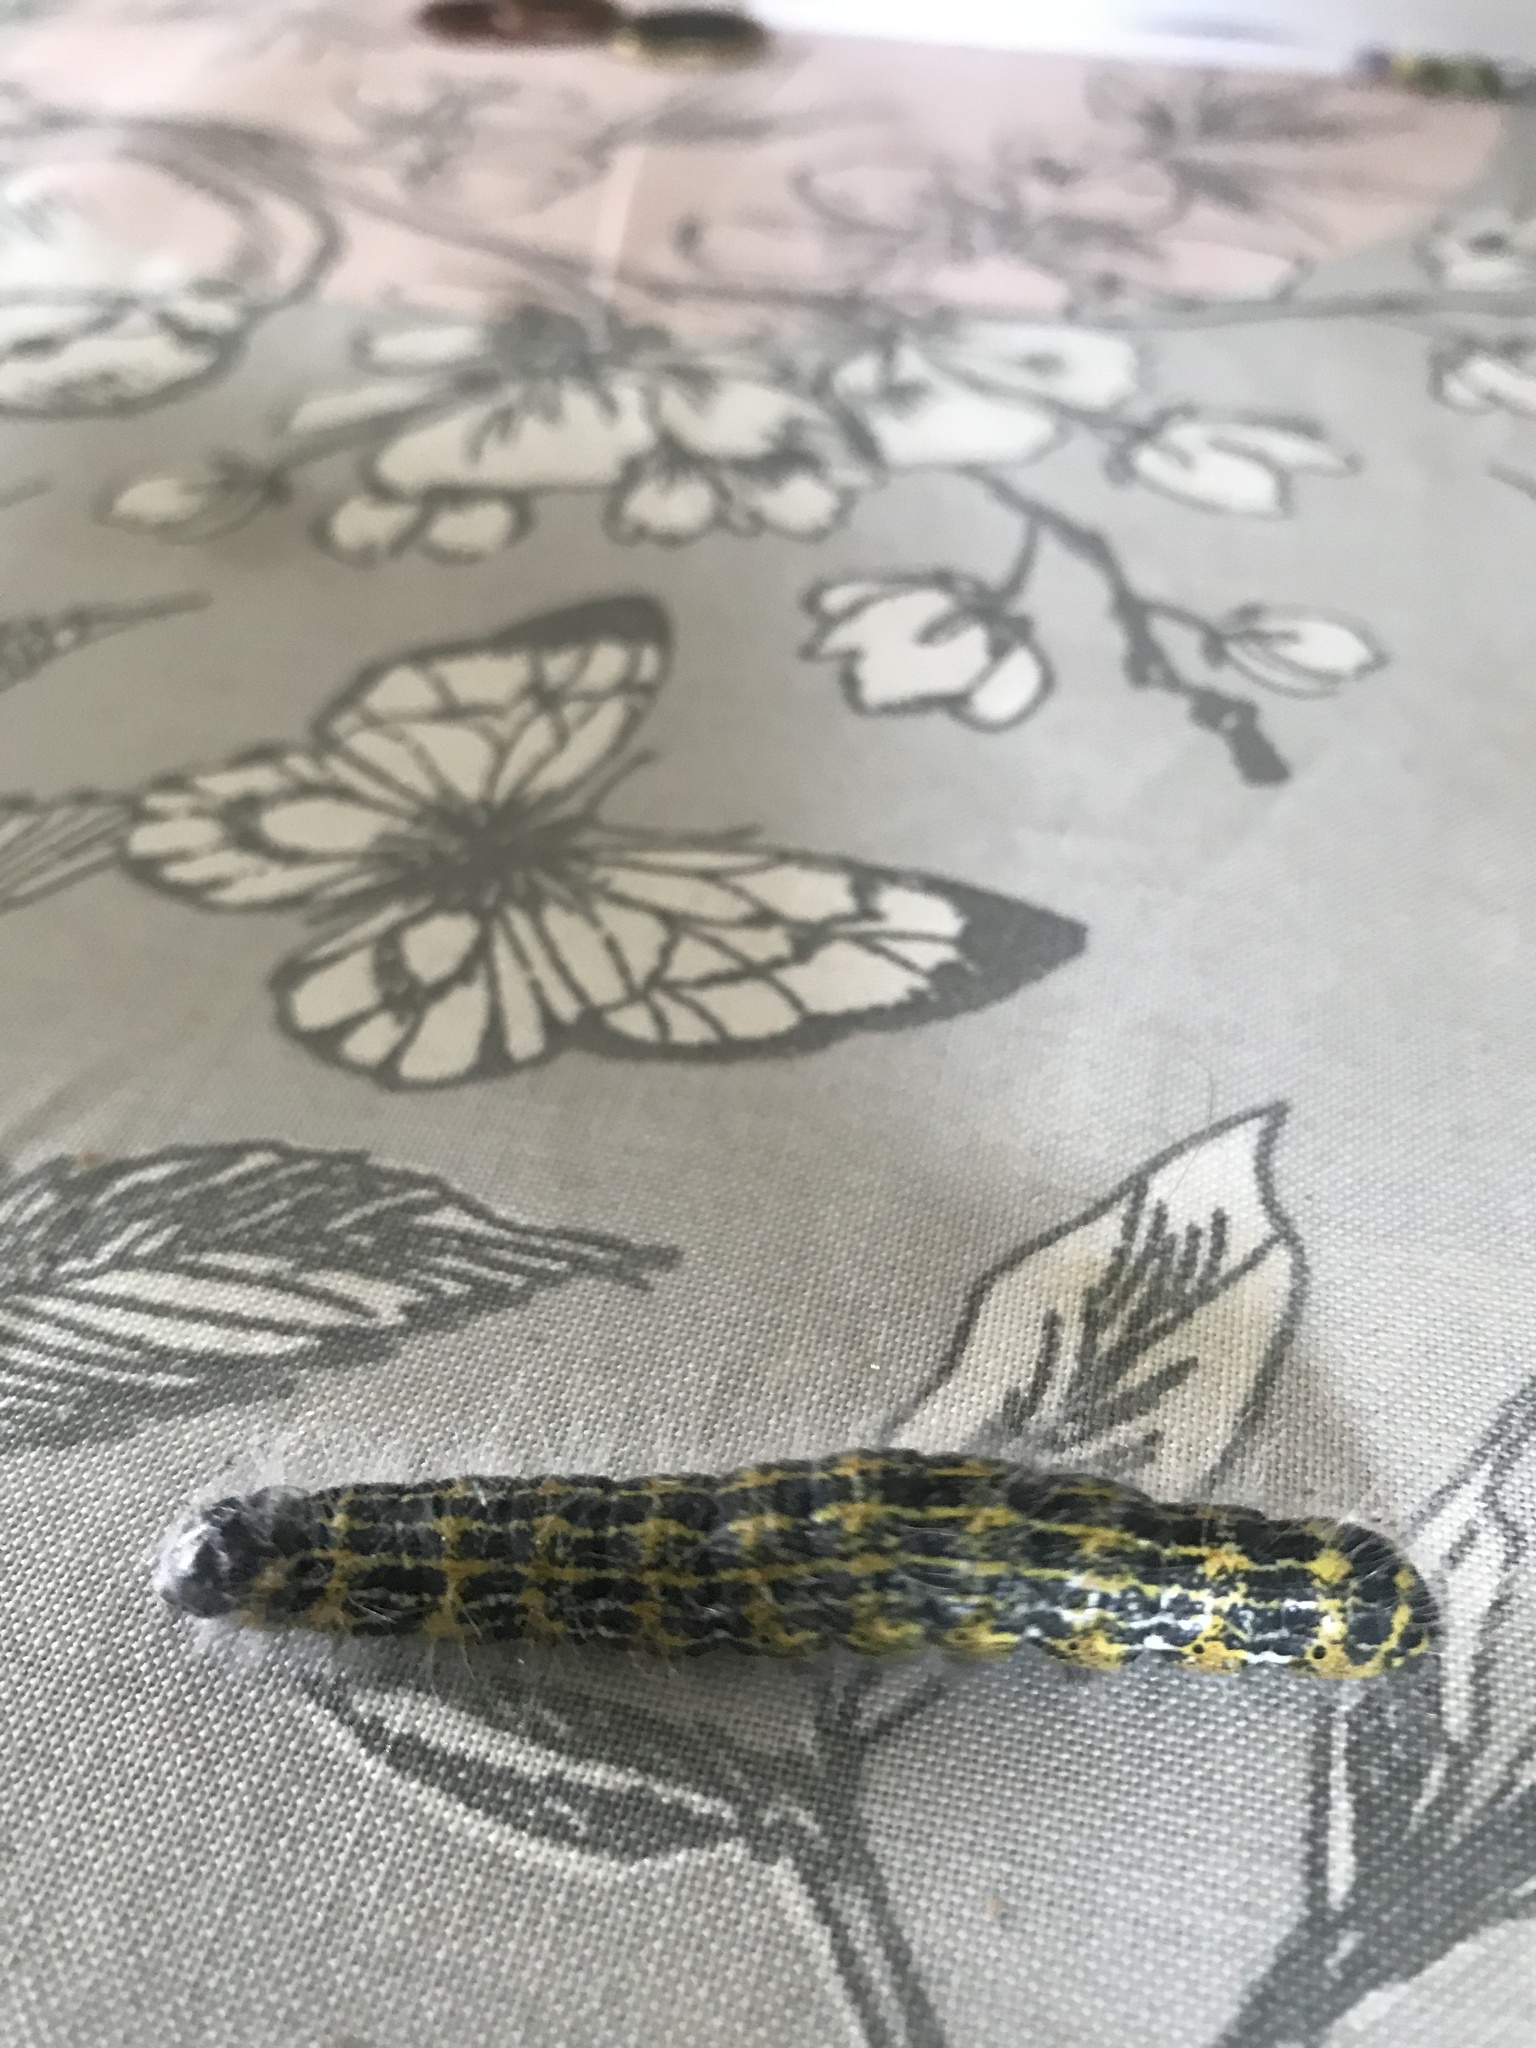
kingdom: Animalia
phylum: Arthropoda
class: Insecta
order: Lepidoptera
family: Notodontidae
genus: Phalera
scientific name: Phalera bucephala
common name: Buff-tip
